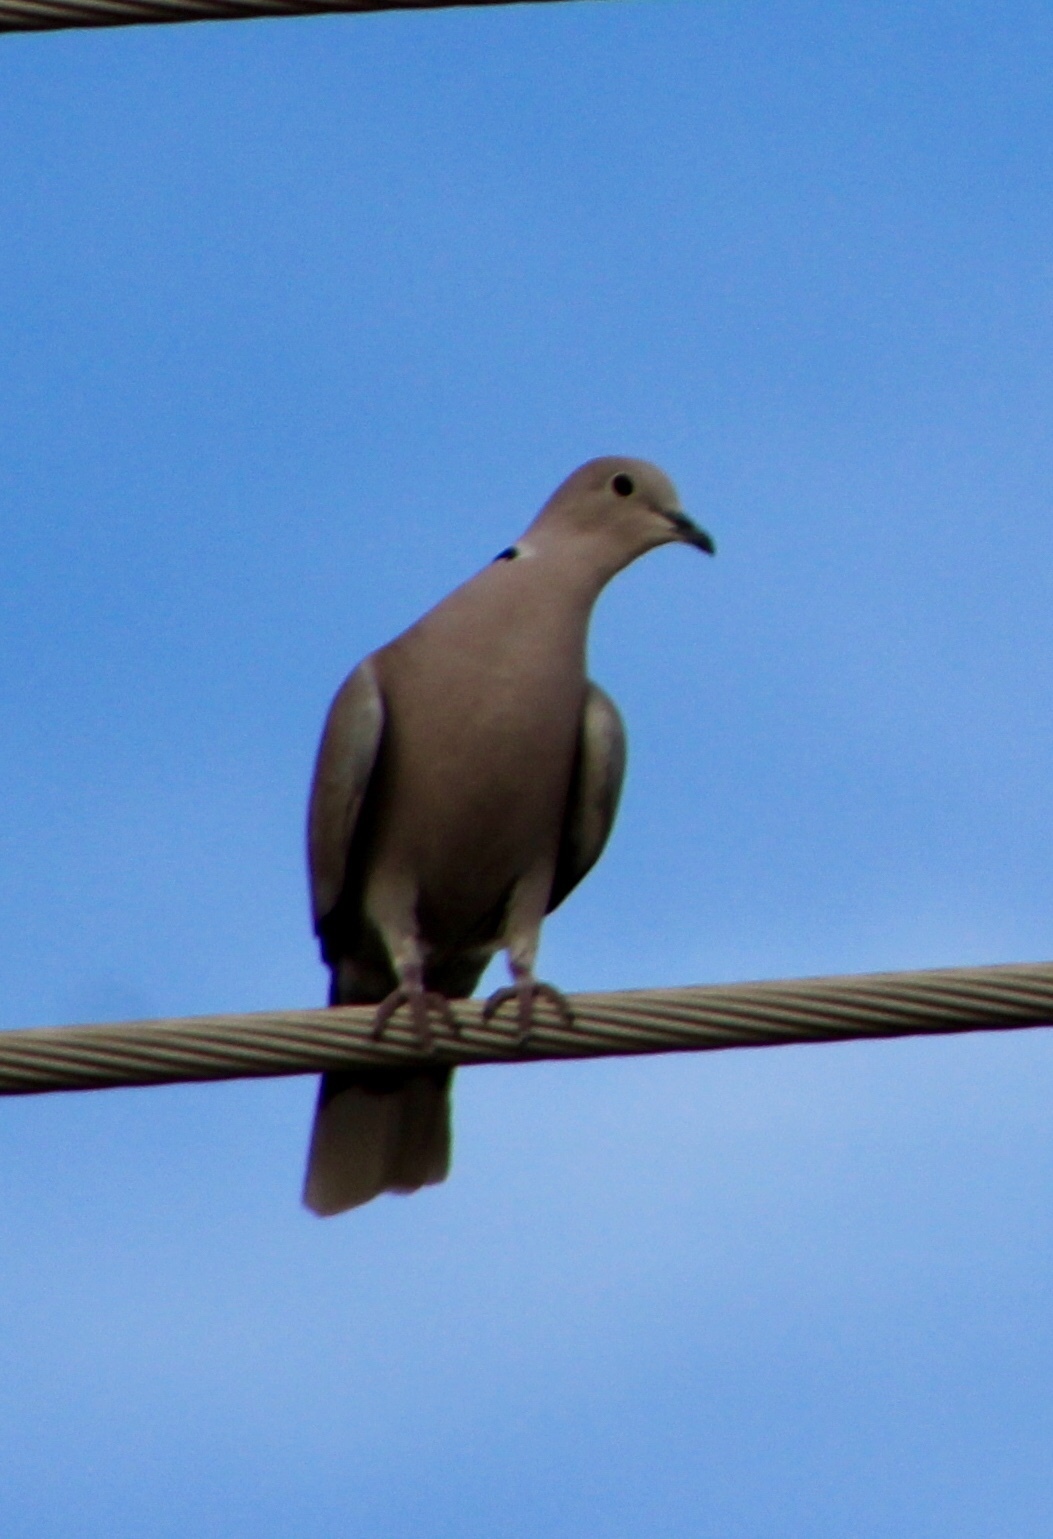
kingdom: Animalia
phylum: Chordata
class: Aves
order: Columbiformes
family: Columbidae
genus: Streptopelia
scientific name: Streptopelia decaocto
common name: Eurasian collared dove
